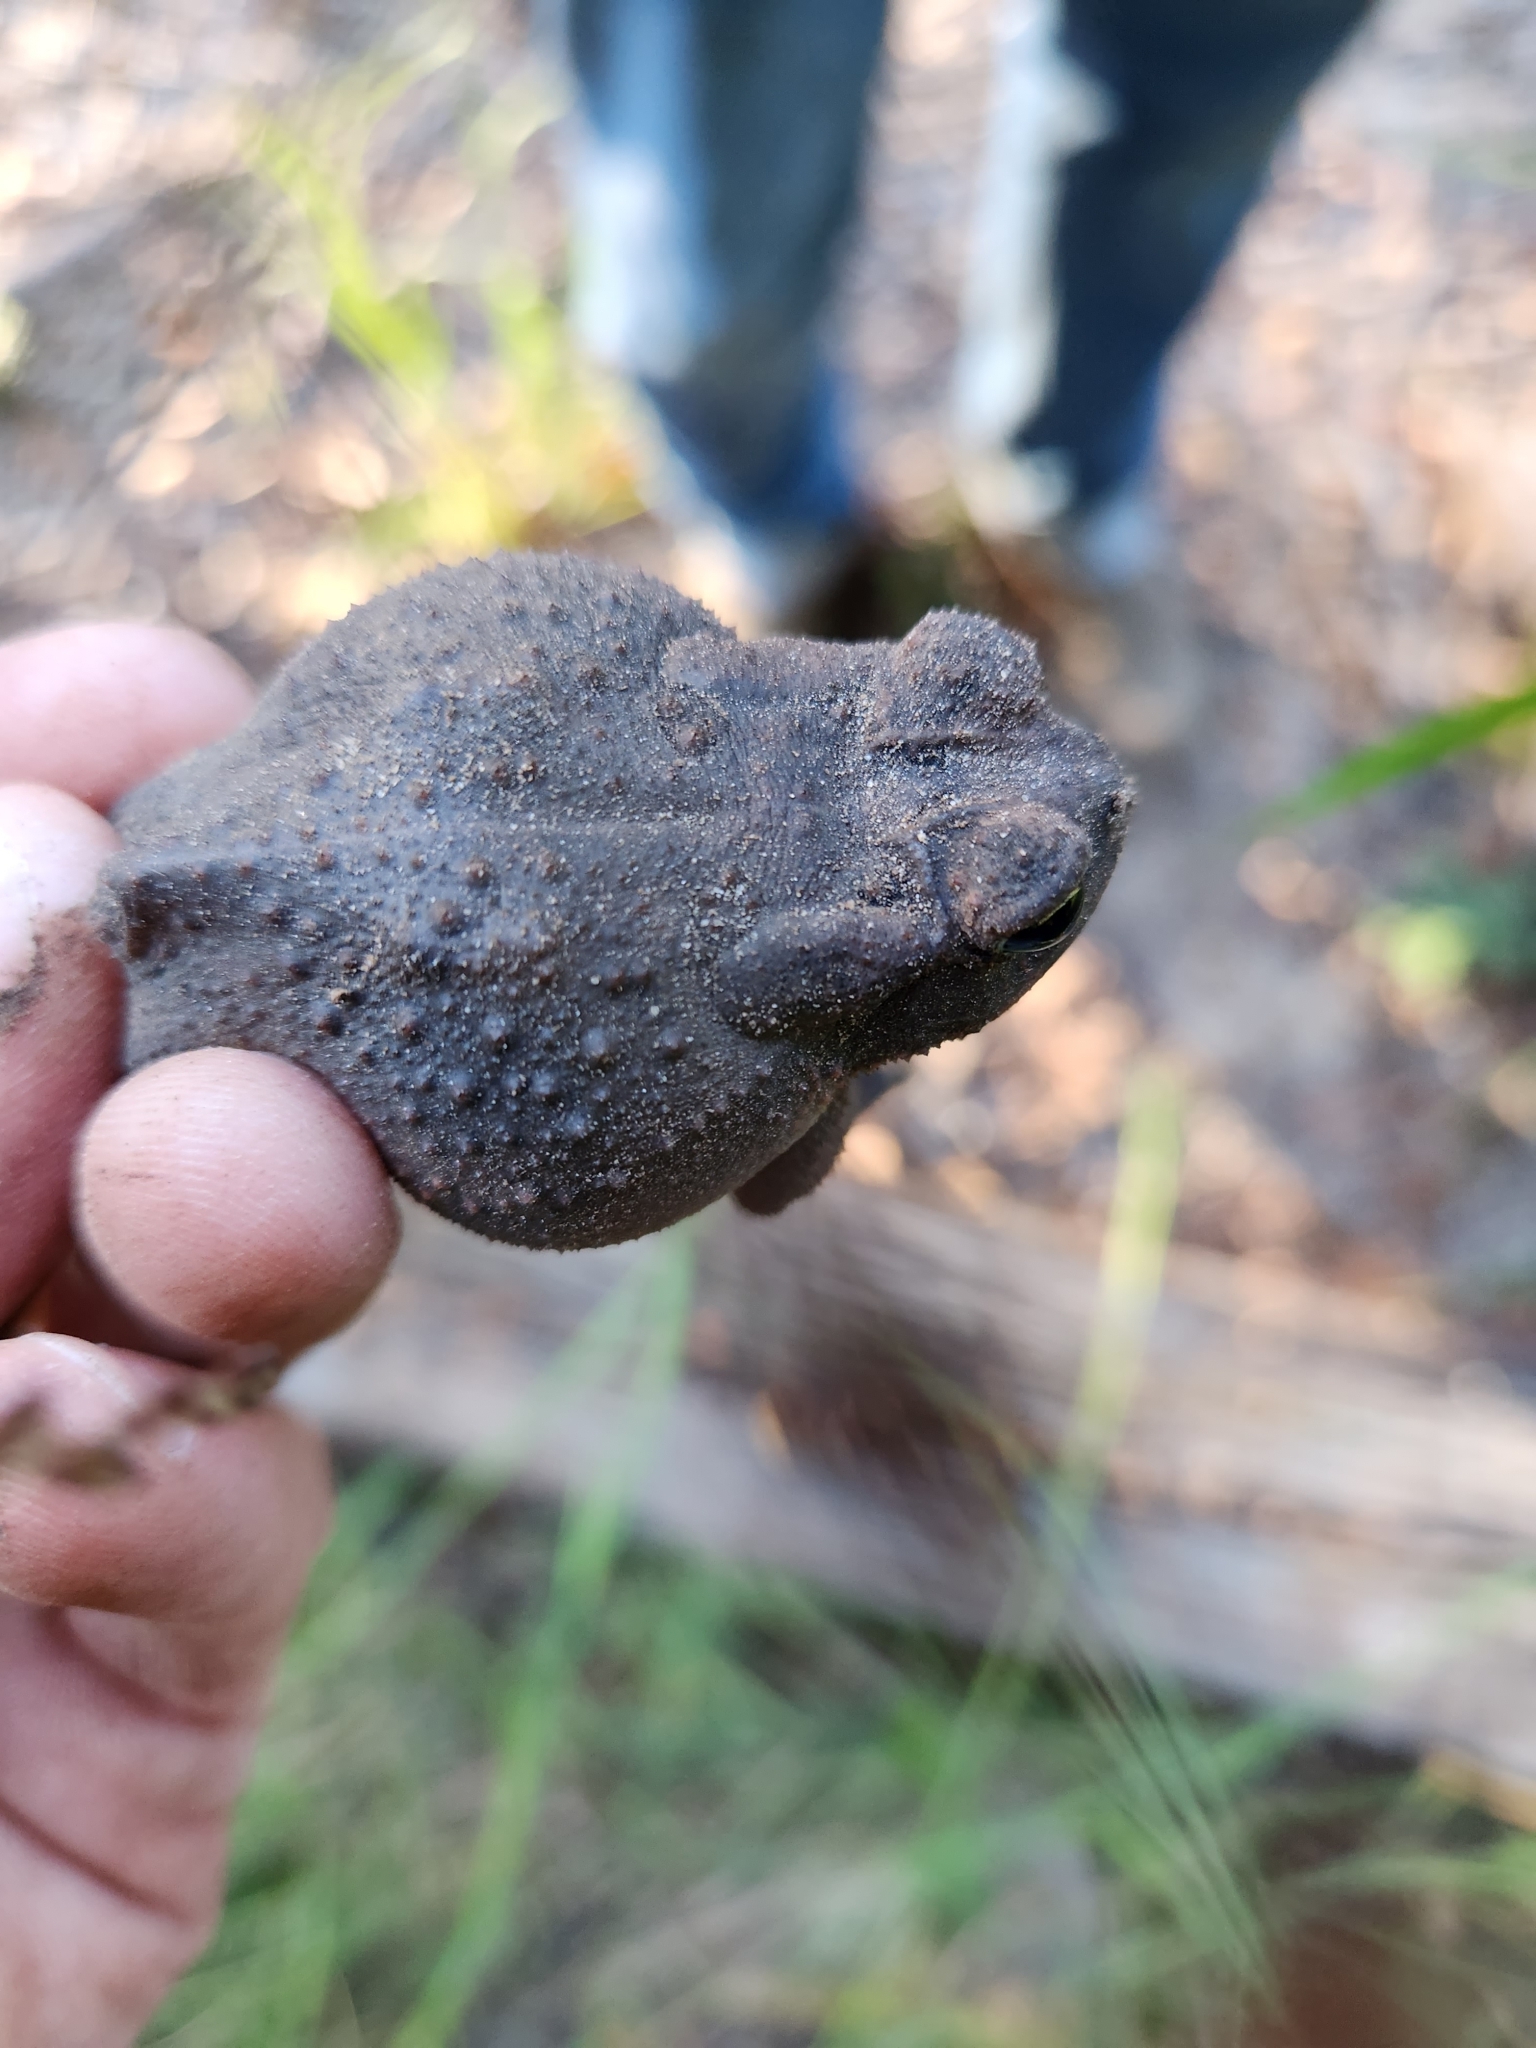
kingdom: Animalia
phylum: Chordata
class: Amphibia
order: Anura
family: Bufonidae
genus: Anaxyrus
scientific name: Anaxyrus americanus
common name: American toad
